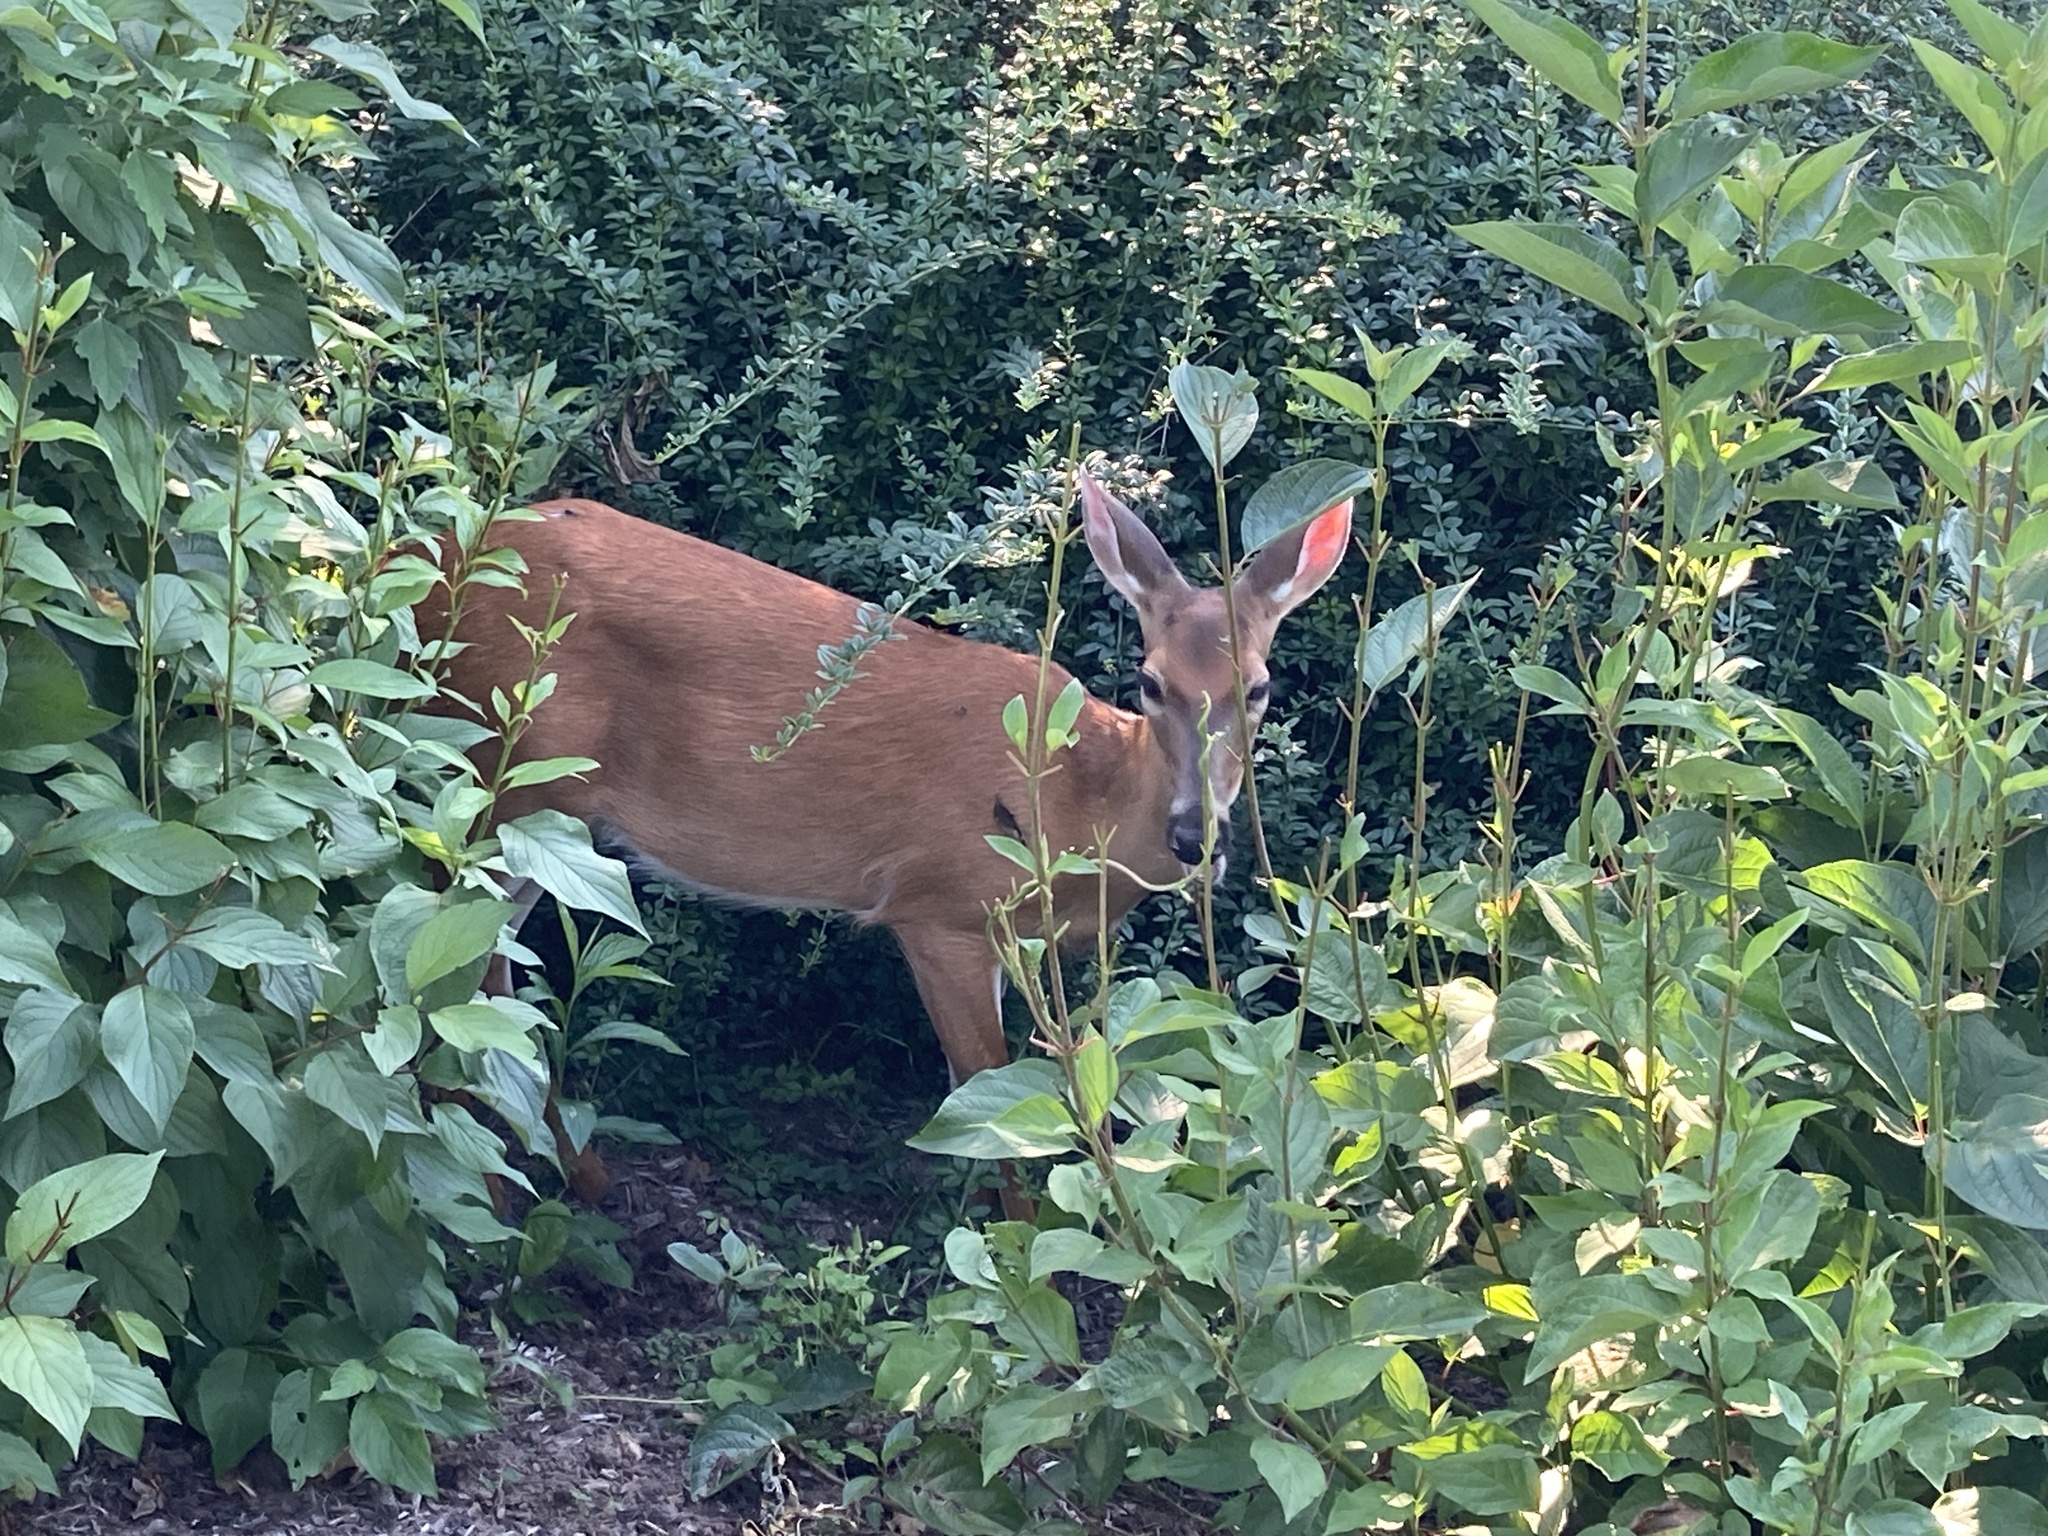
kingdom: Animalia
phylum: Chordata
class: Mammalia
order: Artiodactyla
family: Cervidae
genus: Odocoileus
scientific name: Odocoileus virginianus
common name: White-tailed deer
